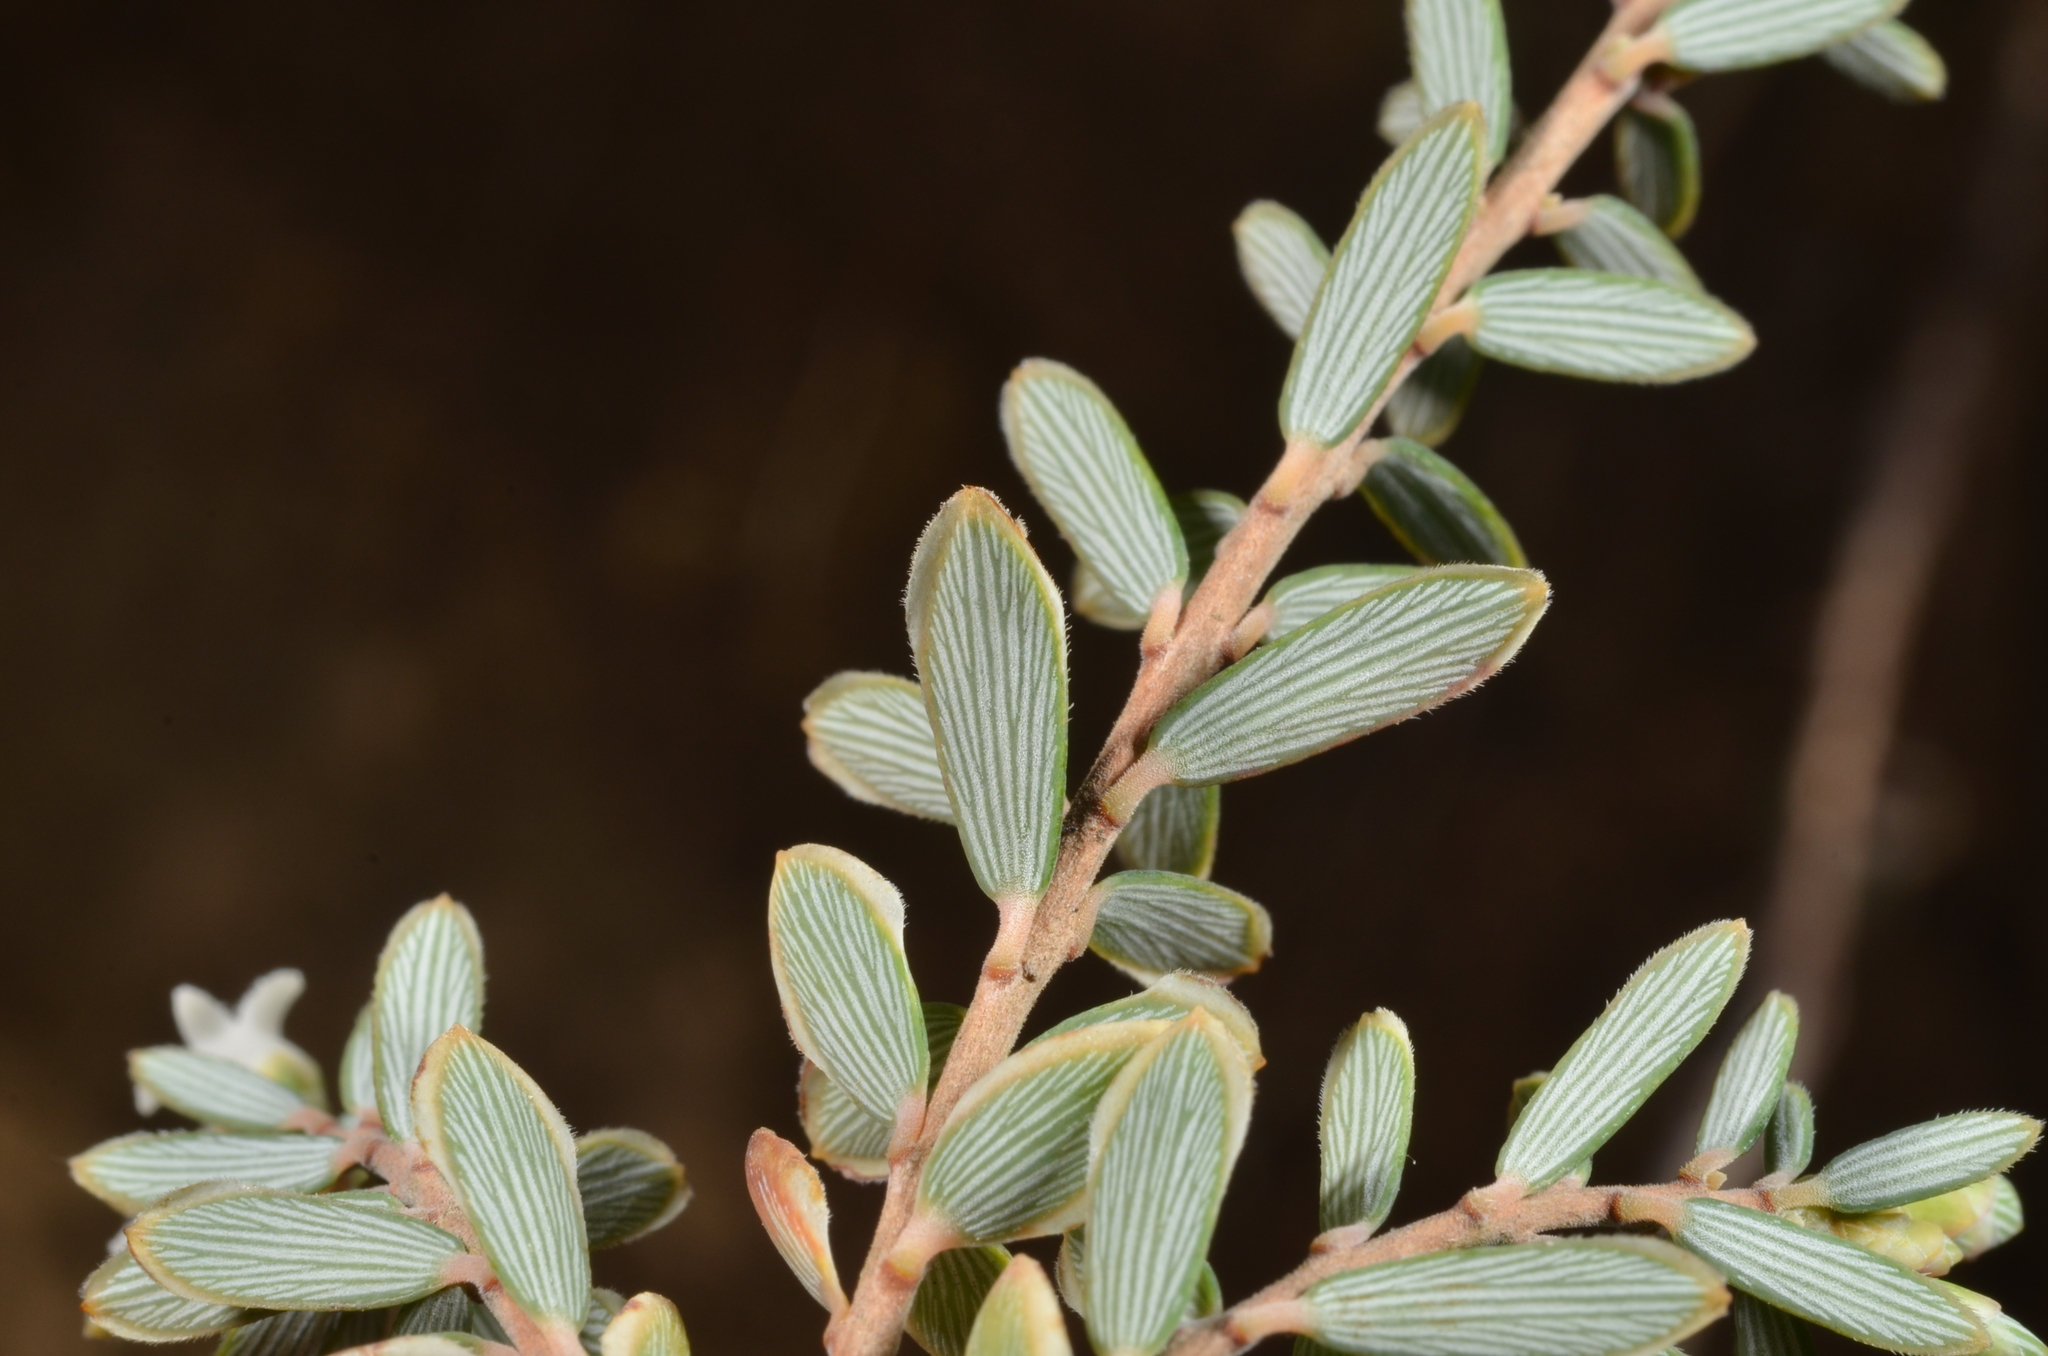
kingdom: Plantae
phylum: Tracheophyta
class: Magnoliopsida
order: Ericales
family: Ericaceae
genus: Acrothamnus
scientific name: Acrothamnus colensoi
